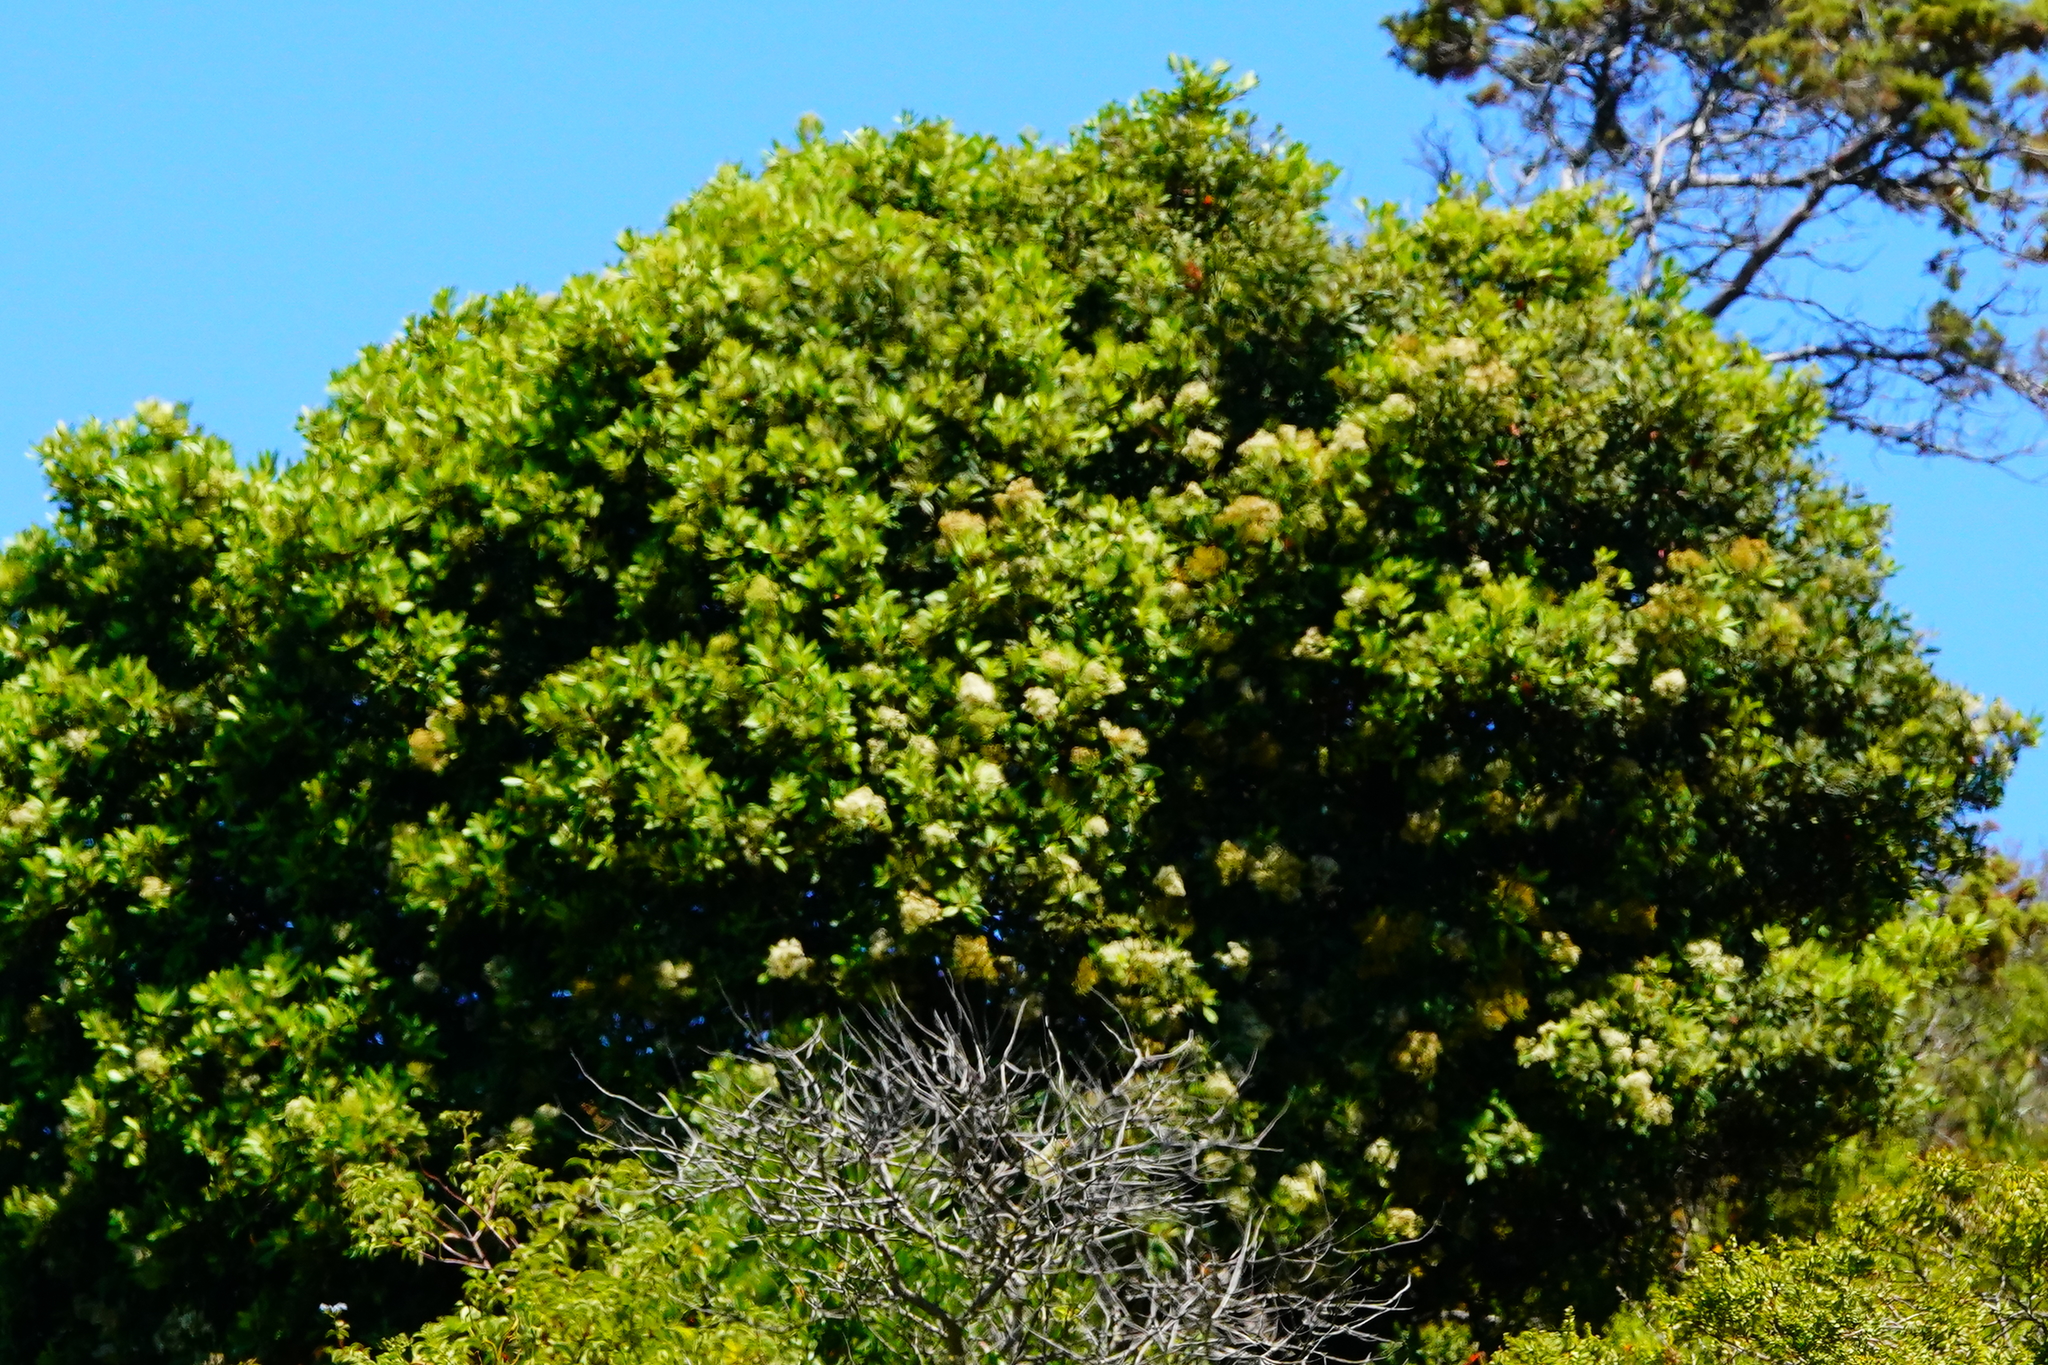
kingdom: Plantae
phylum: Tracheophyta
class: Magnoliopsida
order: Rosales
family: Rosaceae
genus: Heteromeles
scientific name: Heteromeles arbutifolia
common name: California-holly
